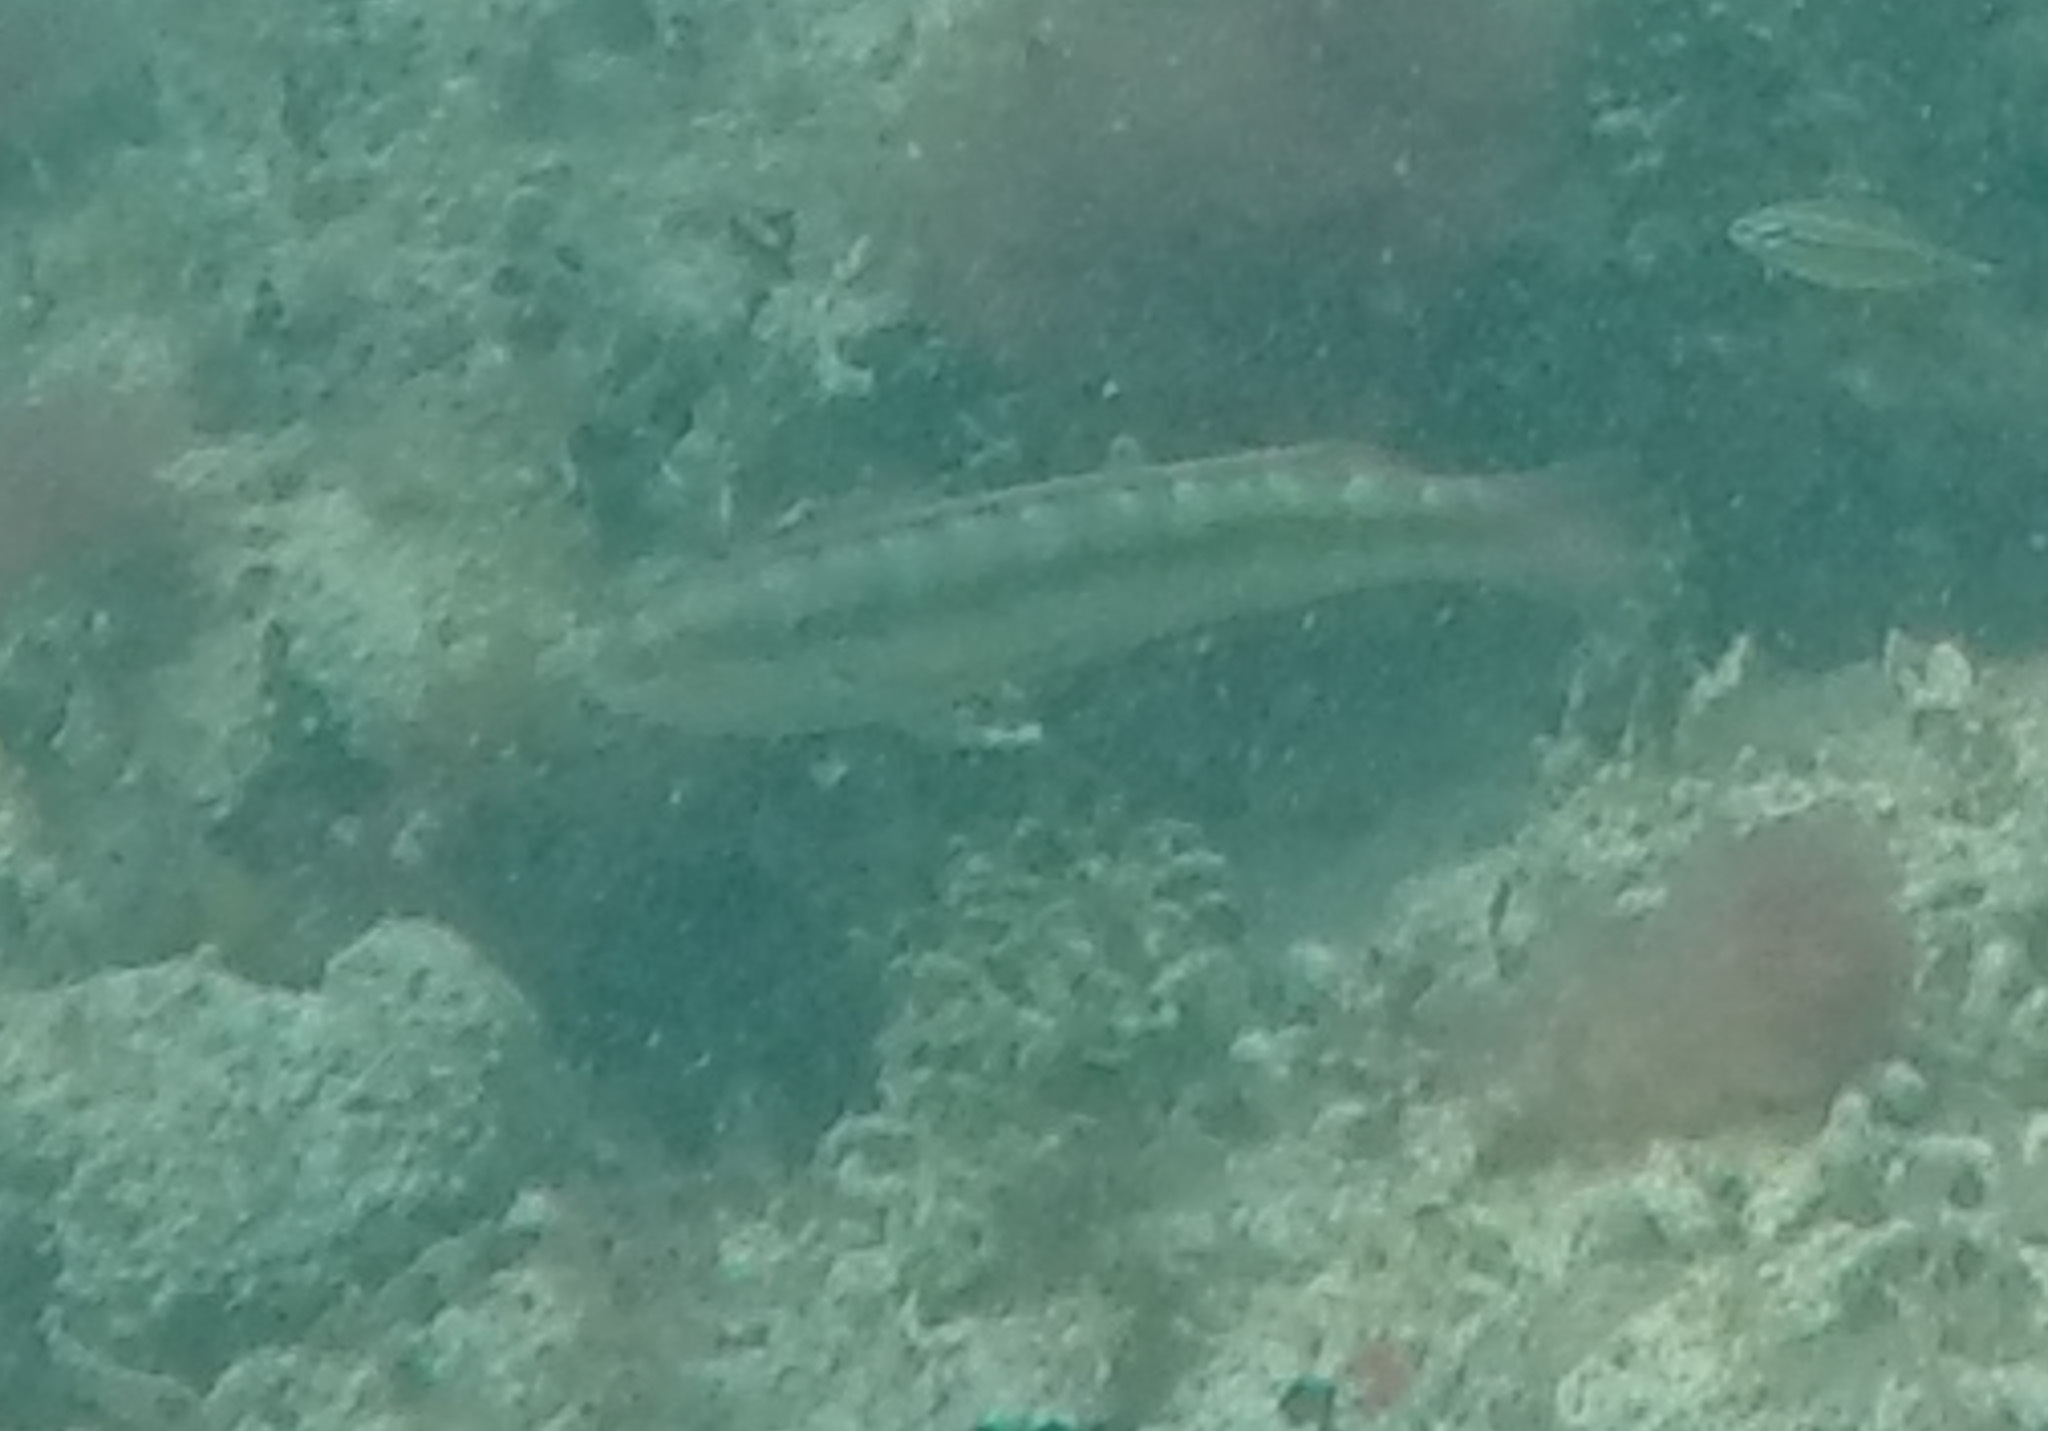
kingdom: Animalia
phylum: Chordata
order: Perciformes
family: Labridae
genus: Halichoeres
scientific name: Halichoeres bivittatus
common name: Slippery dick
